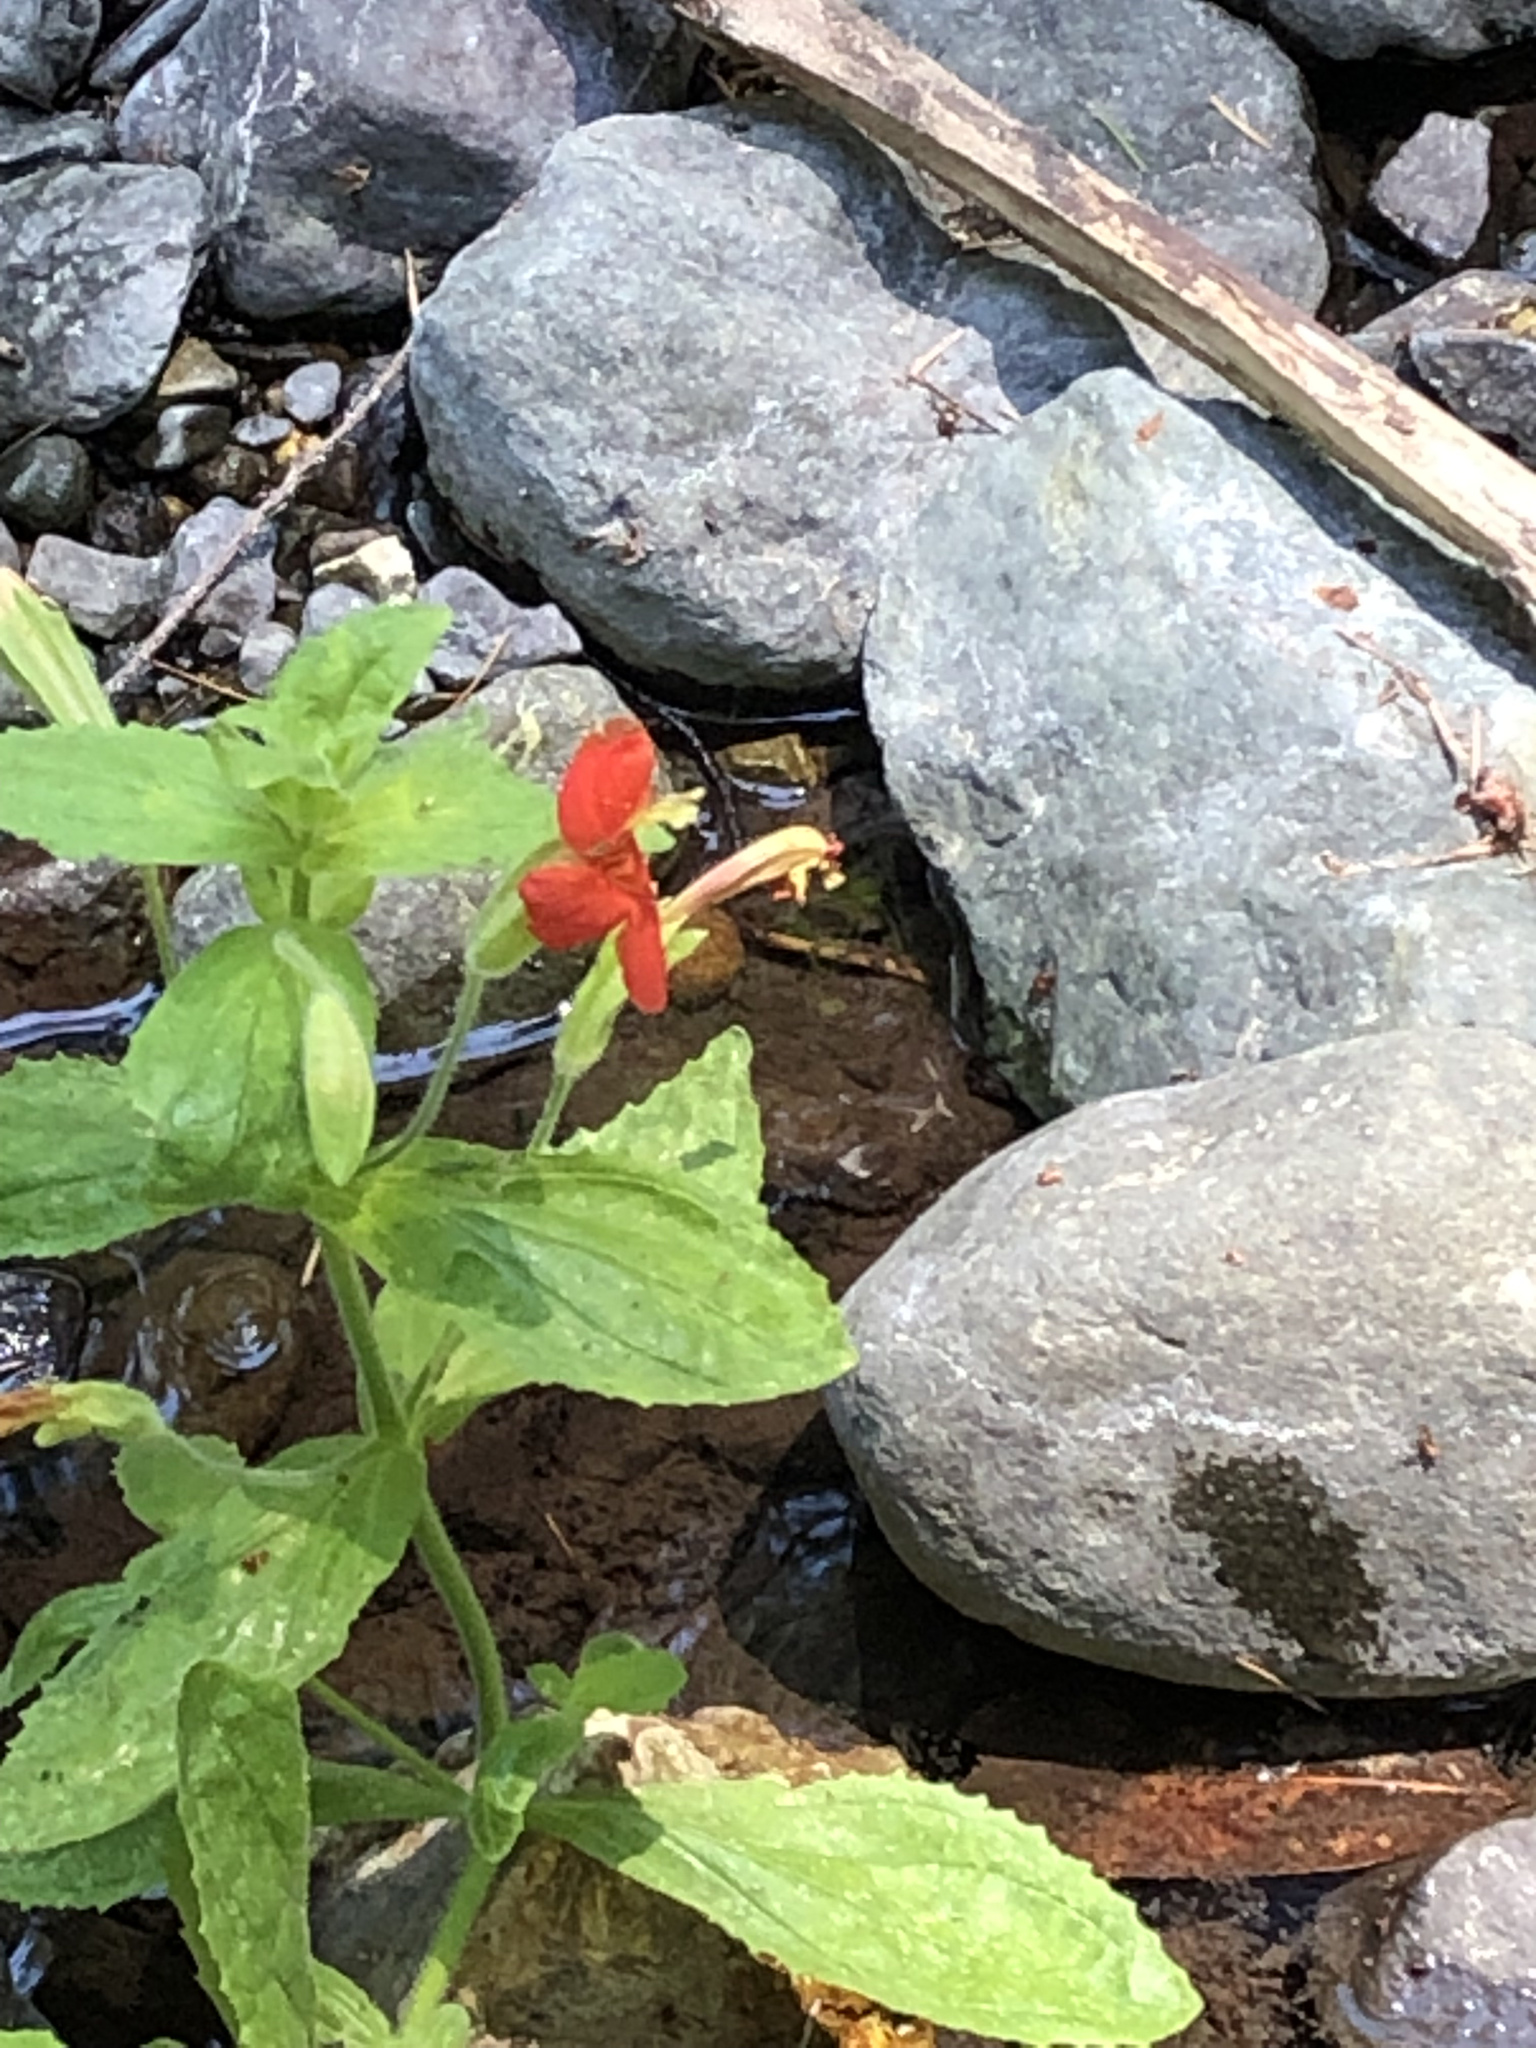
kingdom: Plantae
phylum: Tracheophyta
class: Magnoliopsida
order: Lamiales
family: Phrymaceae
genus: Erythranthe
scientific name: Erythranthe cardinalis
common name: Scarlet monkey-flower
